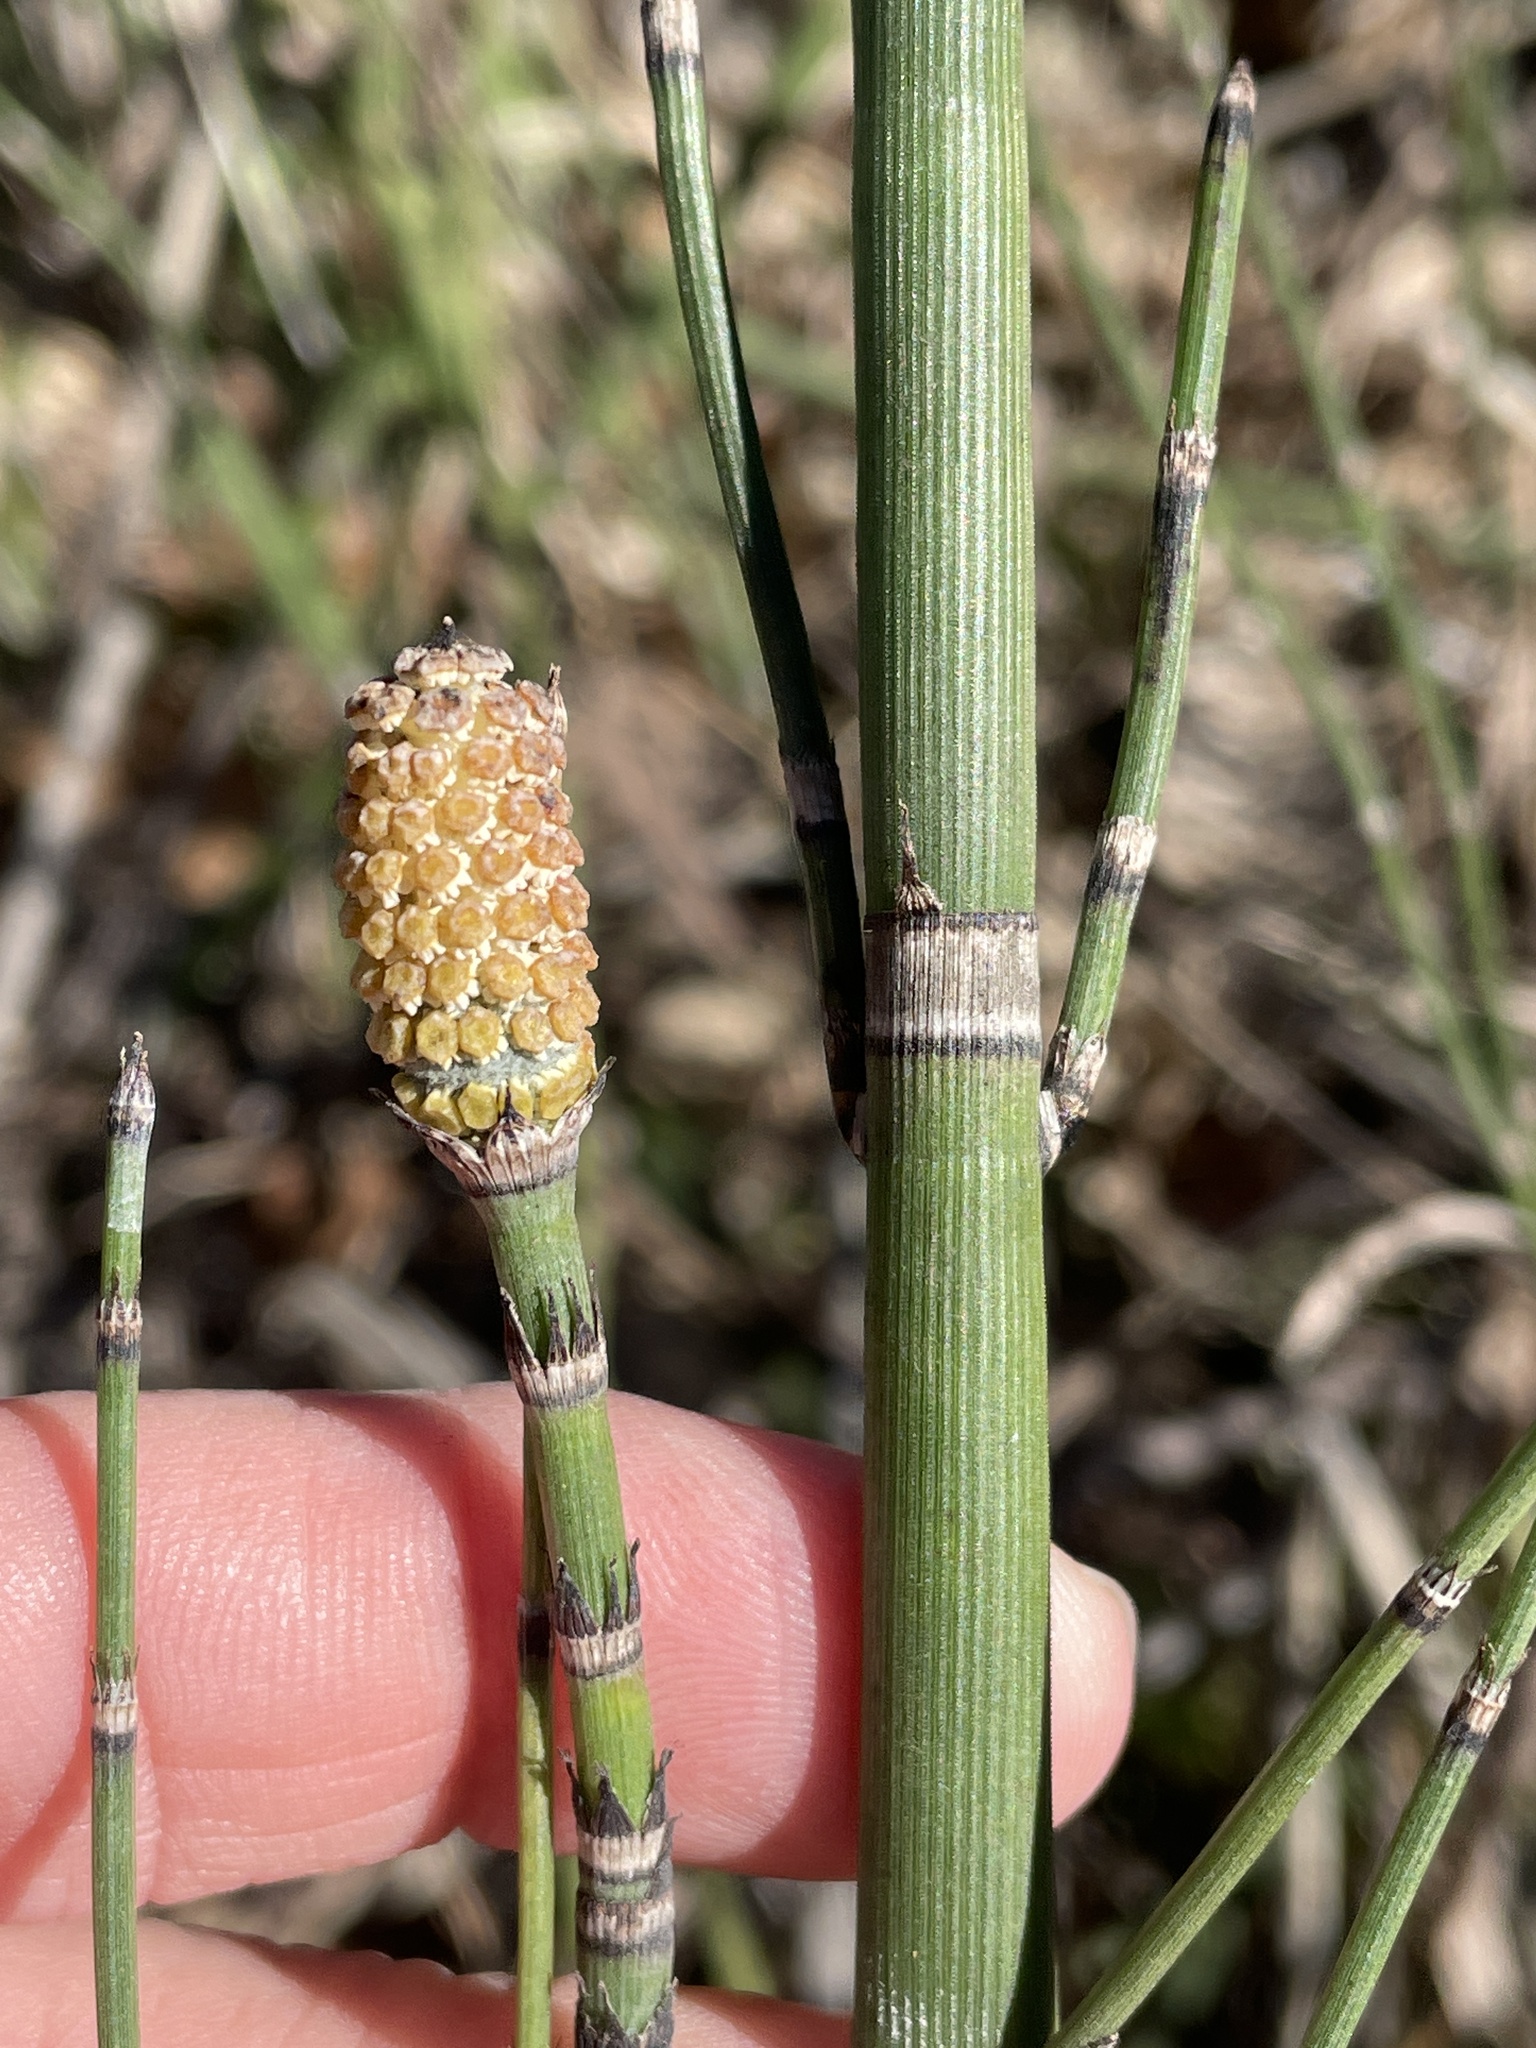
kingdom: Plantae
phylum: Tracheophyta
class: Polypodiopsida
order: Equisetales
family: Equisetaceae
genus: Equisetum
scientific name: Equisetum praealtum
